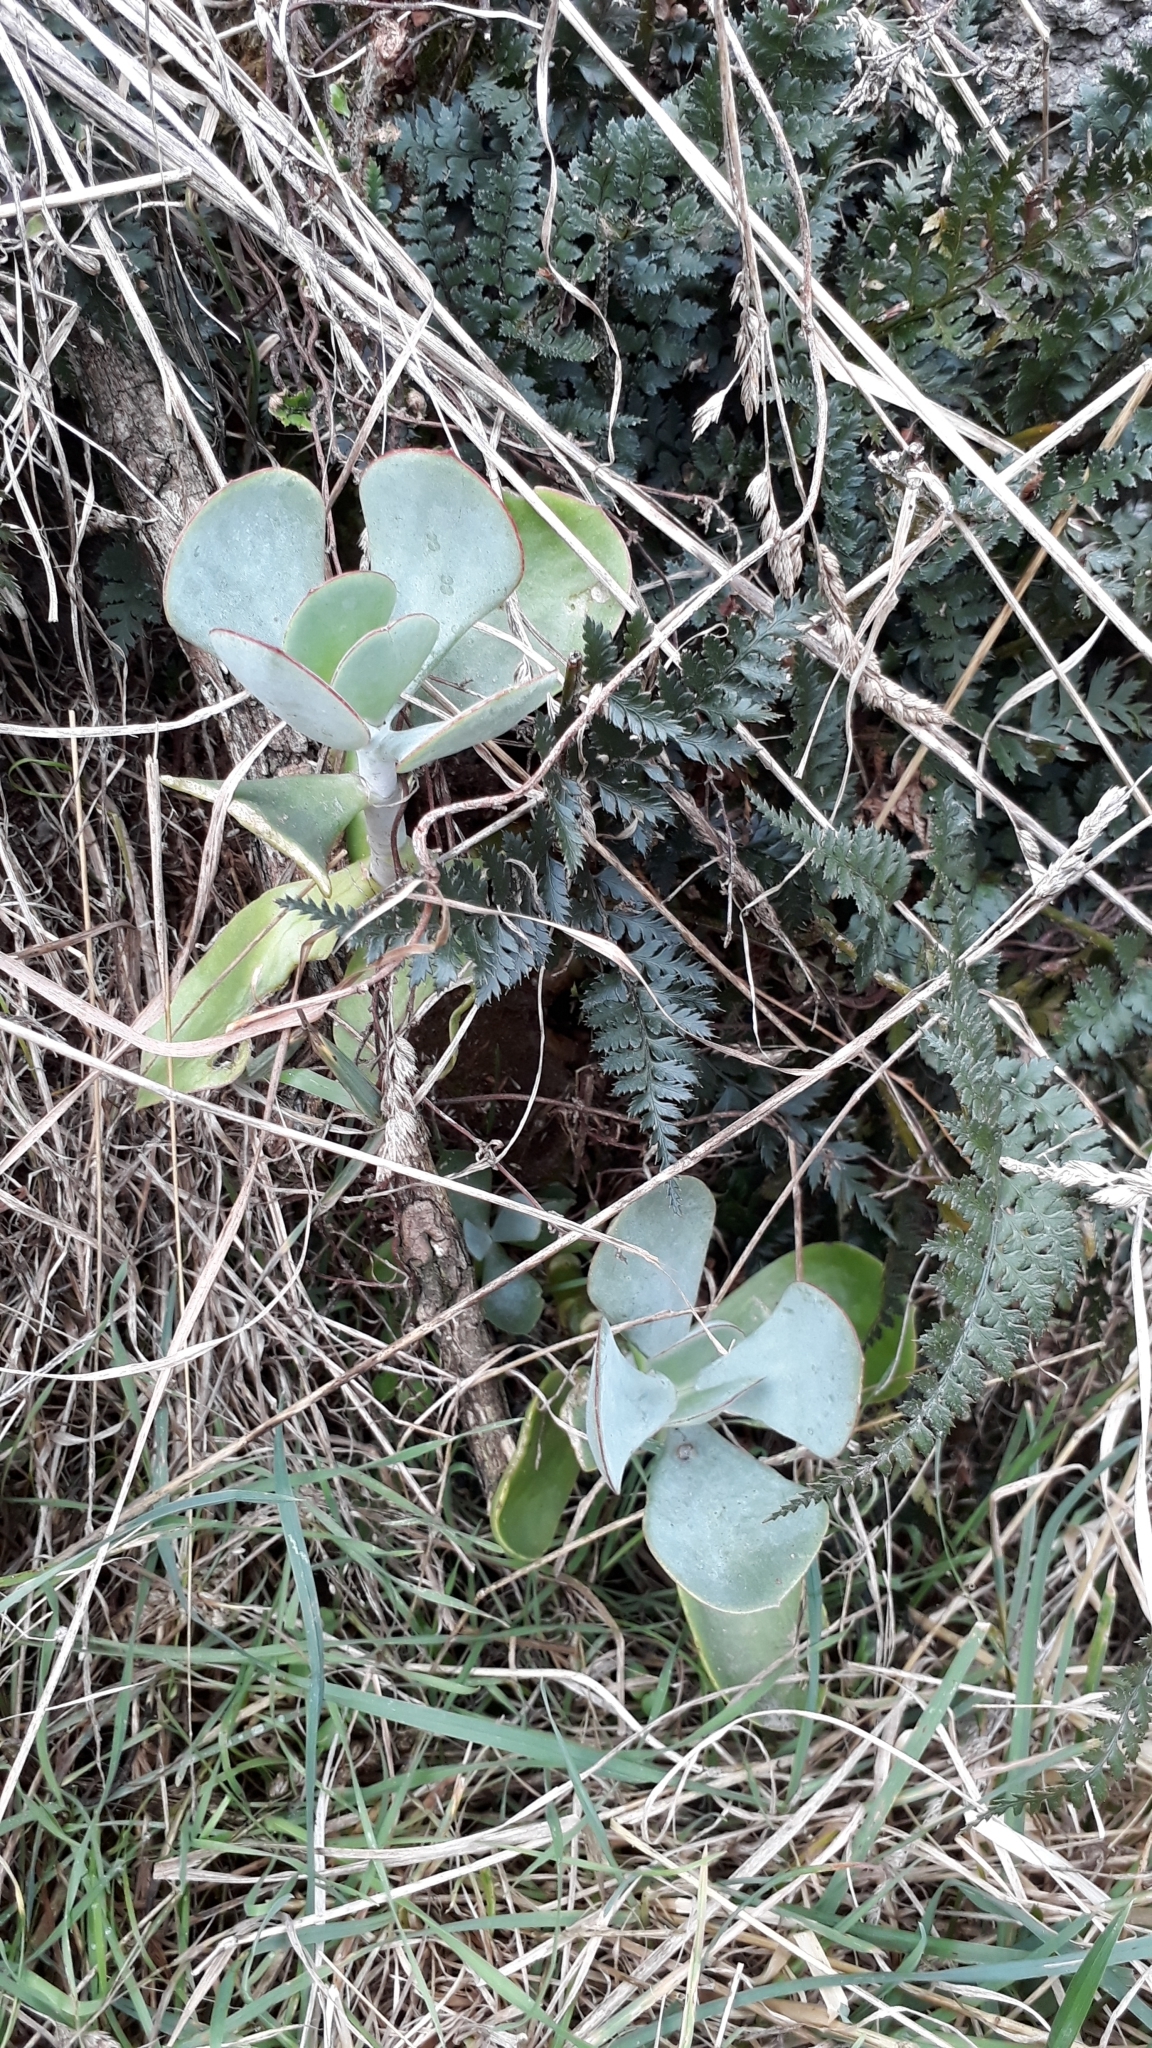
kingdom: Plantae
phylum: Tracheophyta
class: Magnoliopsida
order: Saxifragales
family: Crassulaceae
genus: Cotyledon
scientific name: Cotyledon orbiculata
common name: Pig's ear
